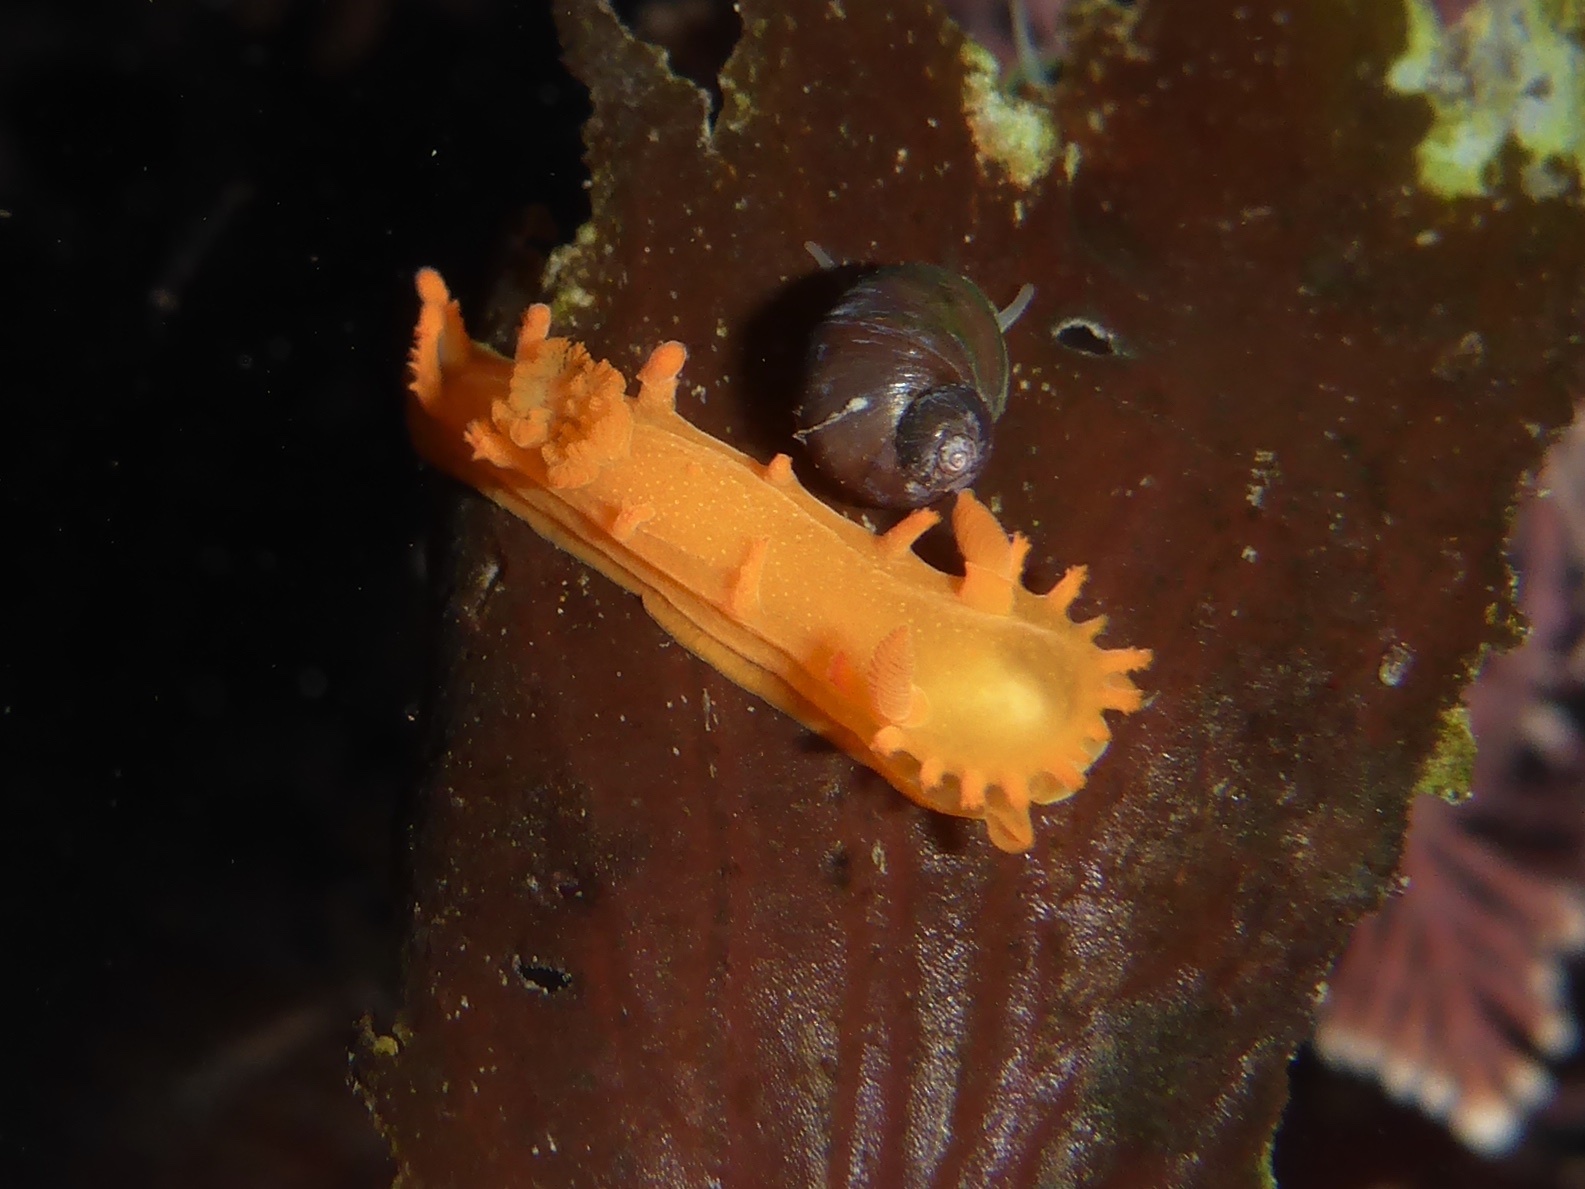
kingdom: Animalia
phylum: Mollusca
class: Gastropoda
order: Nudibranchia
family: Polyceridae
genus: Triopha
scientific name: Triopha maculata
